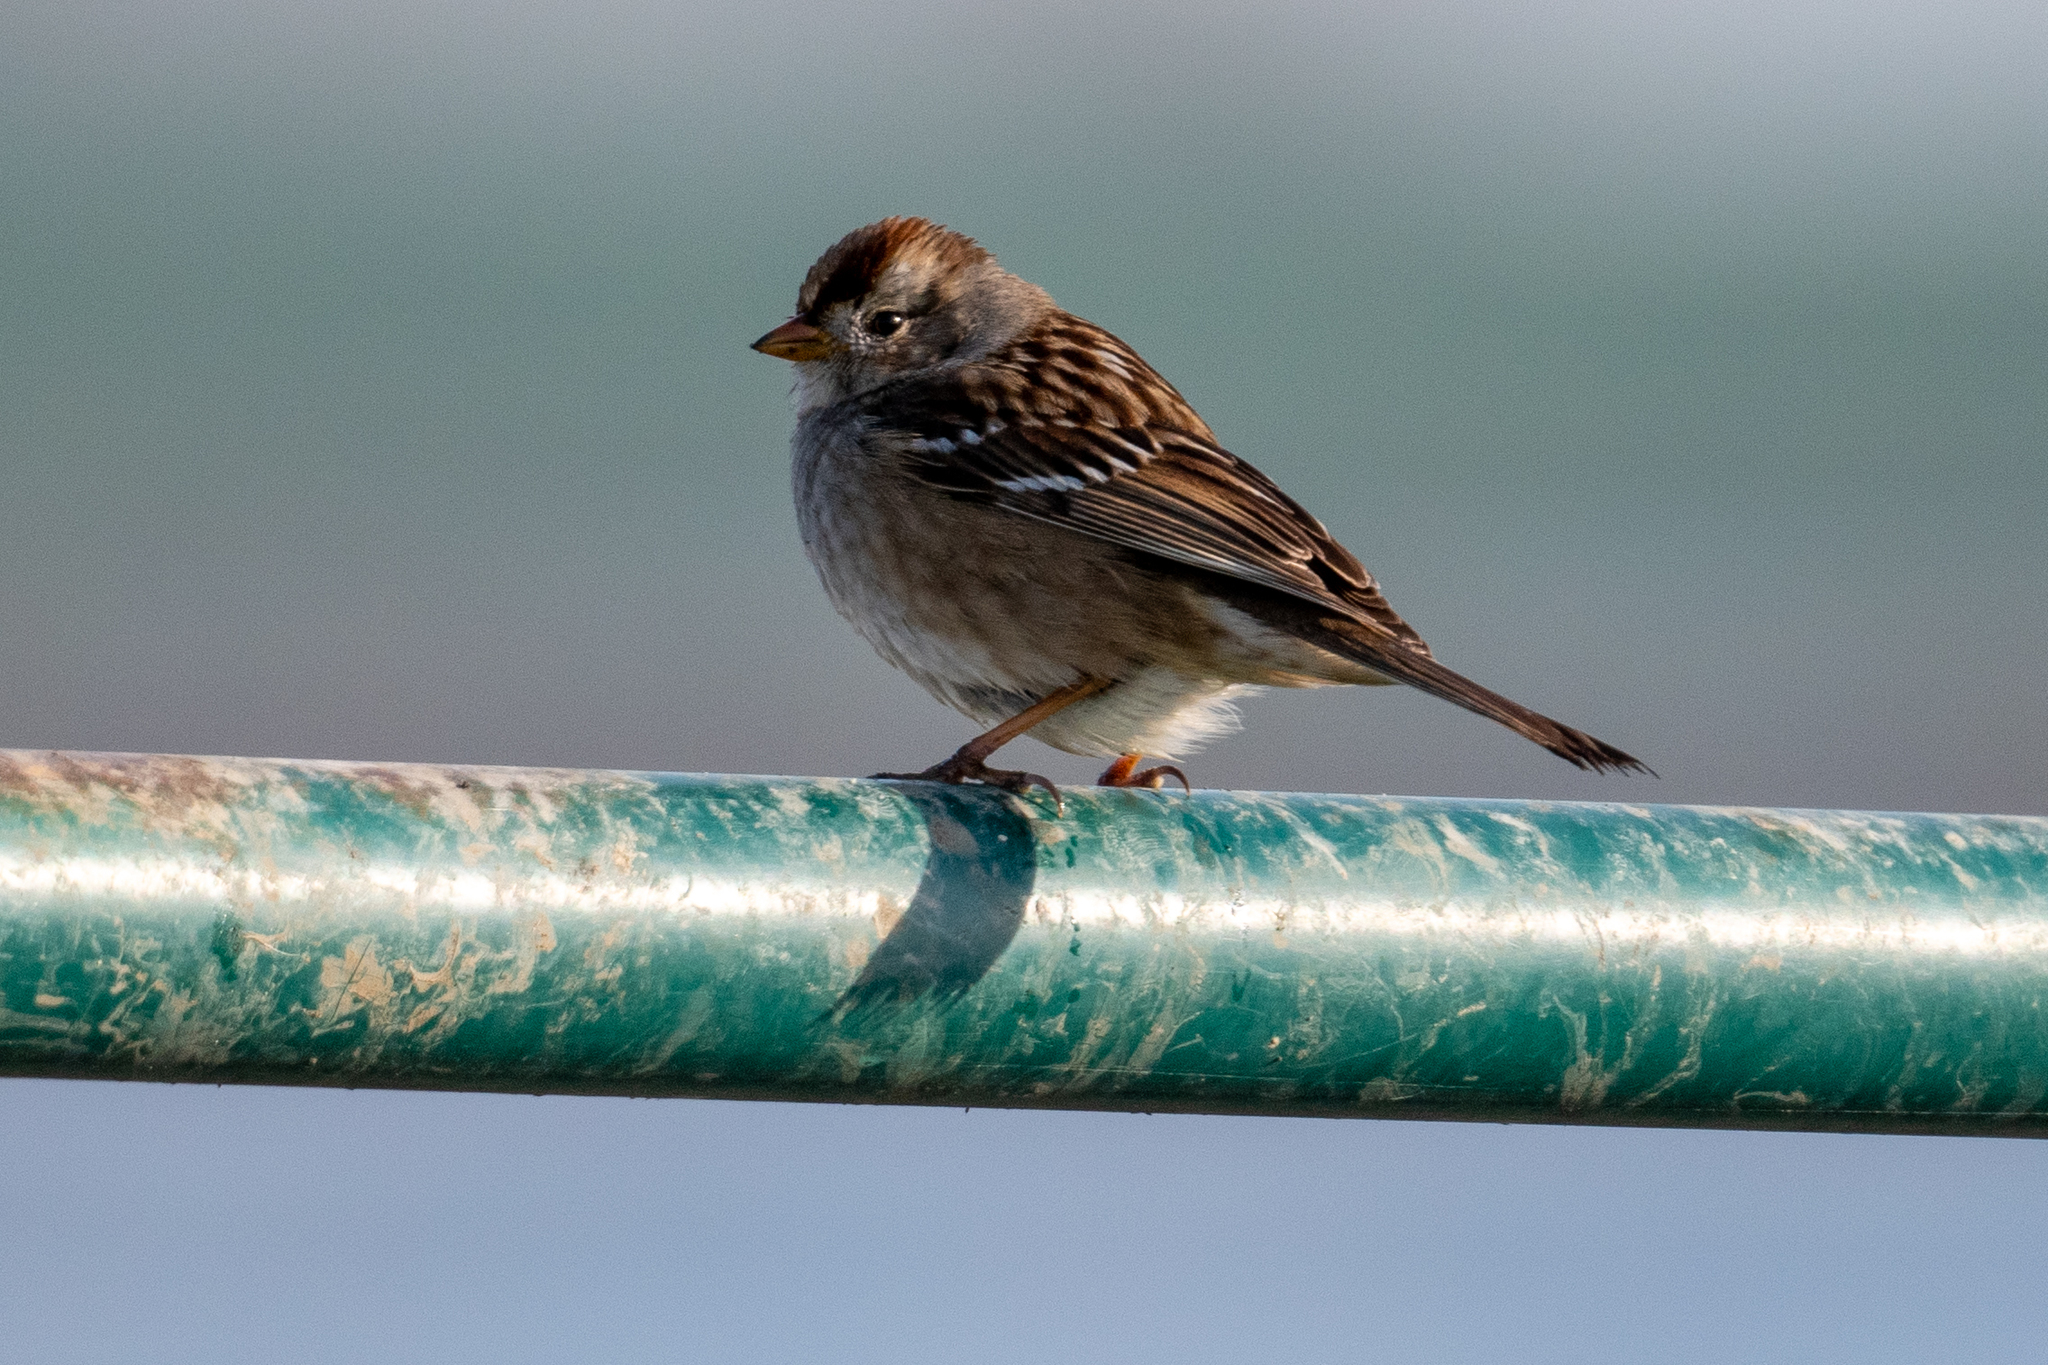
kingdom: Animalia
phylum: Chordata
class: Aves
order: Passeriformes
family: Passerellidae
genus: Zonotrichia
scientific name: Zonotrichia leucophrys
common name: White-crowned sparrow
